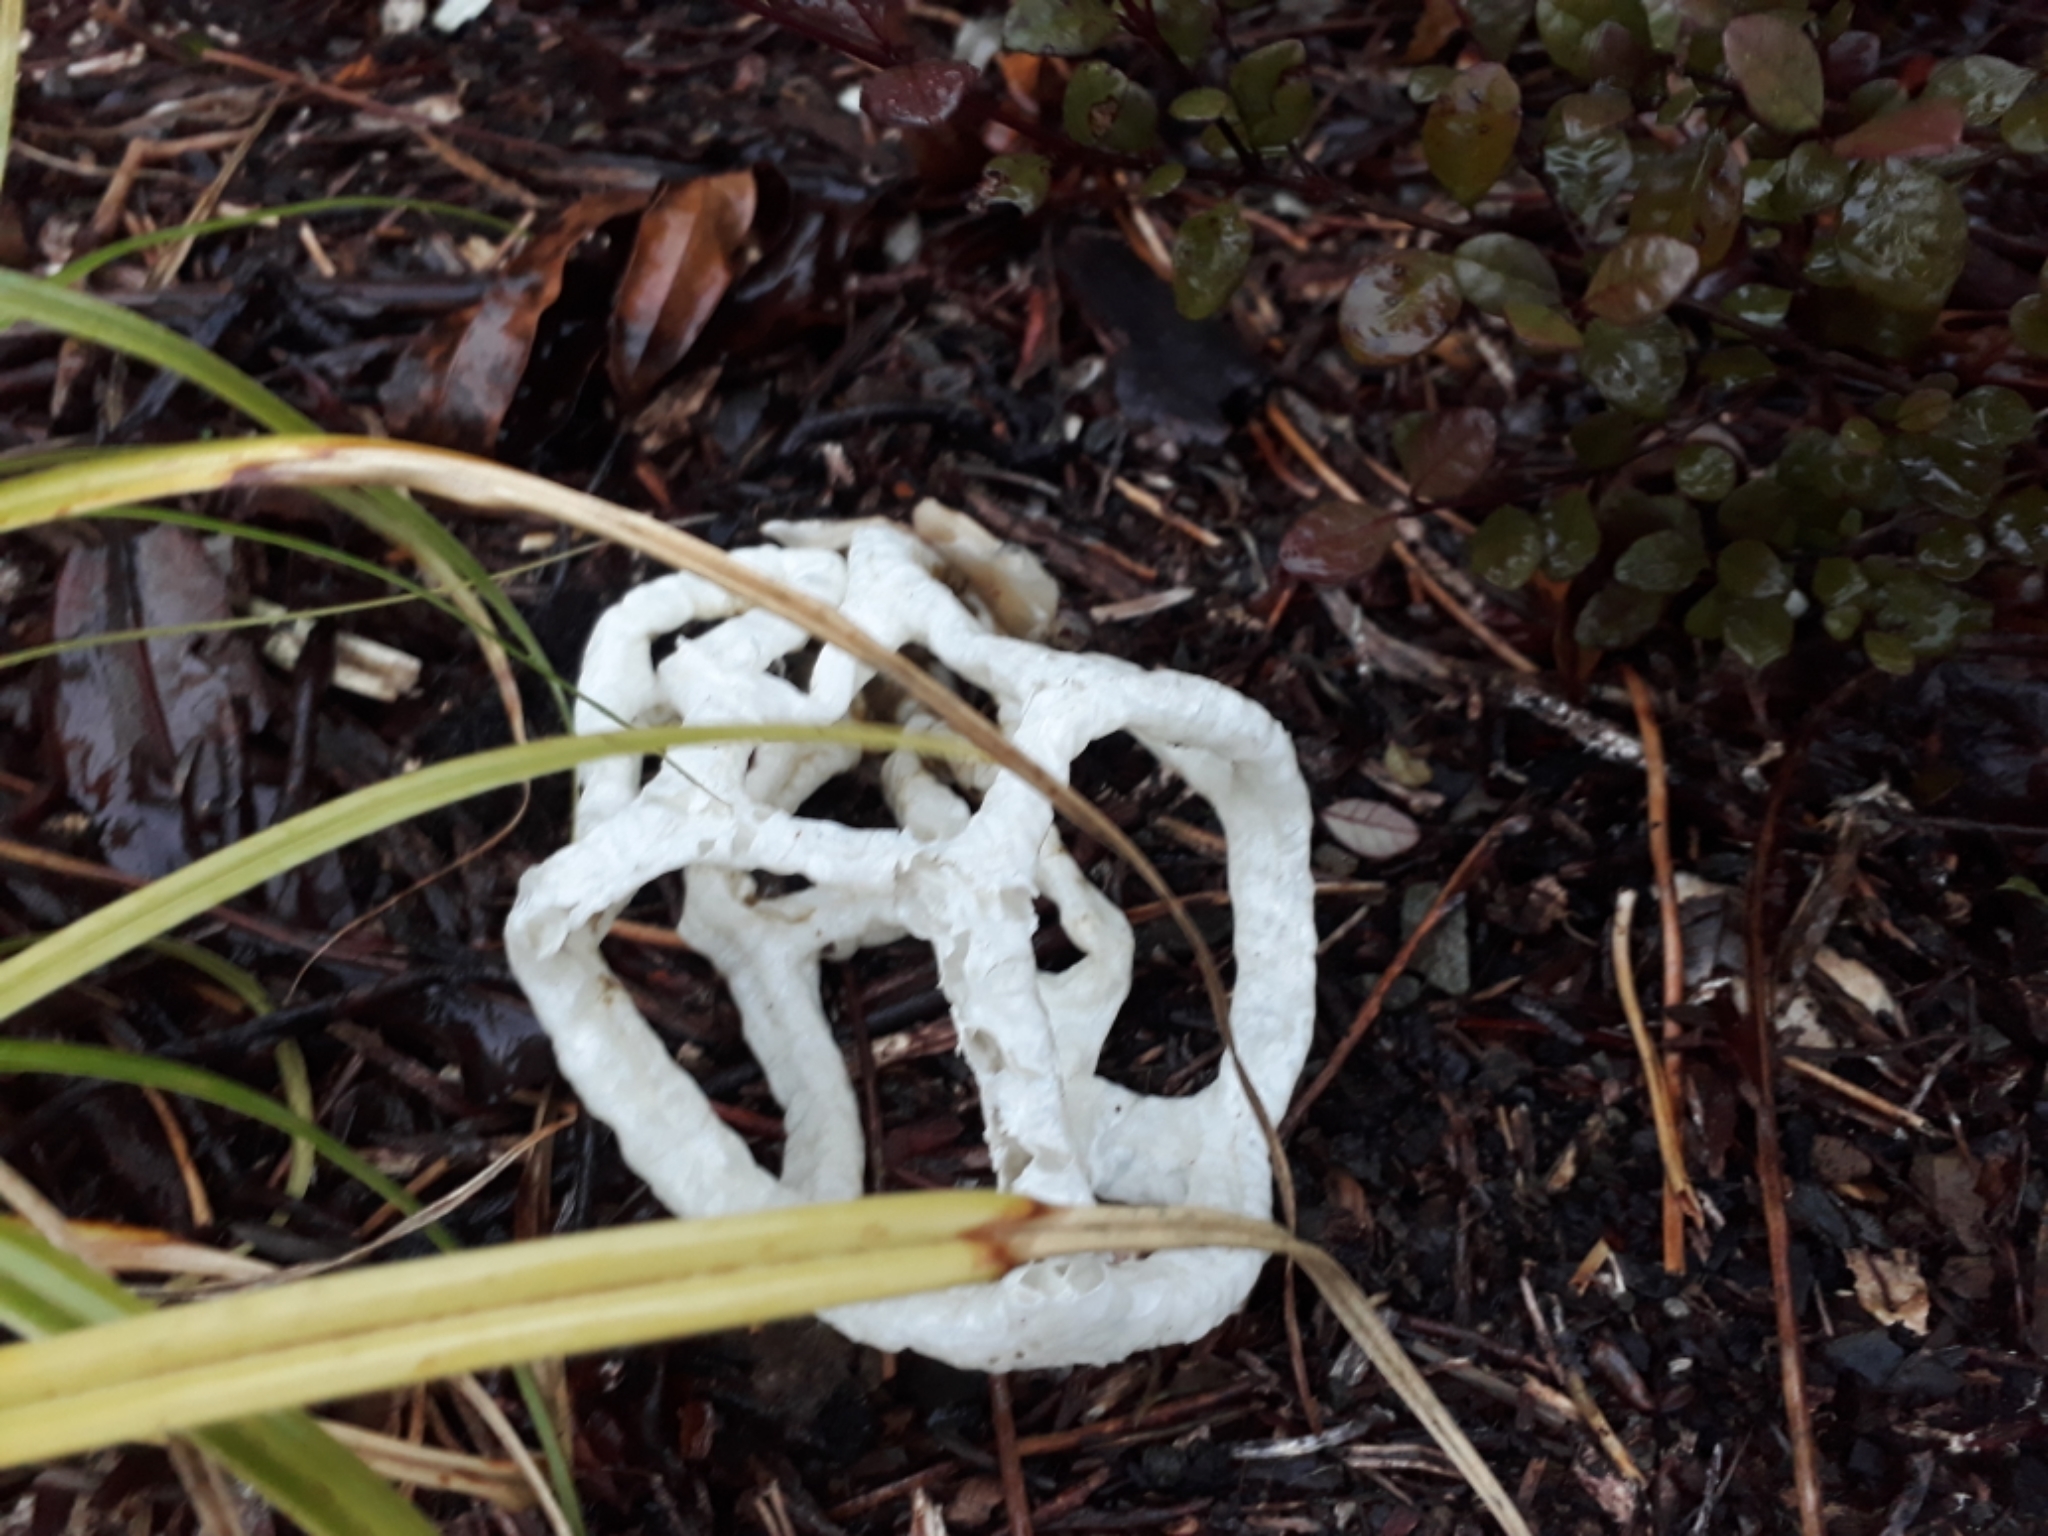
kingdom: Fungi
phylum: Basidiomycota
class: Agaricomycetes
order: Phallales
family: Phallaceae
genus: Ileodictyon
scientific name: Ileodictyon cibarium
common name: Basket fungus
